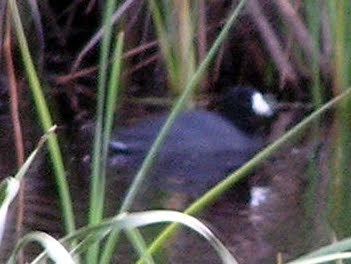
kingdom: Animalia
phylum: Chordata
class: Aves
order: Gruiformes
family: Rallidae
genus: Fulica
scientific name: Fulica americana
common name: American coot
